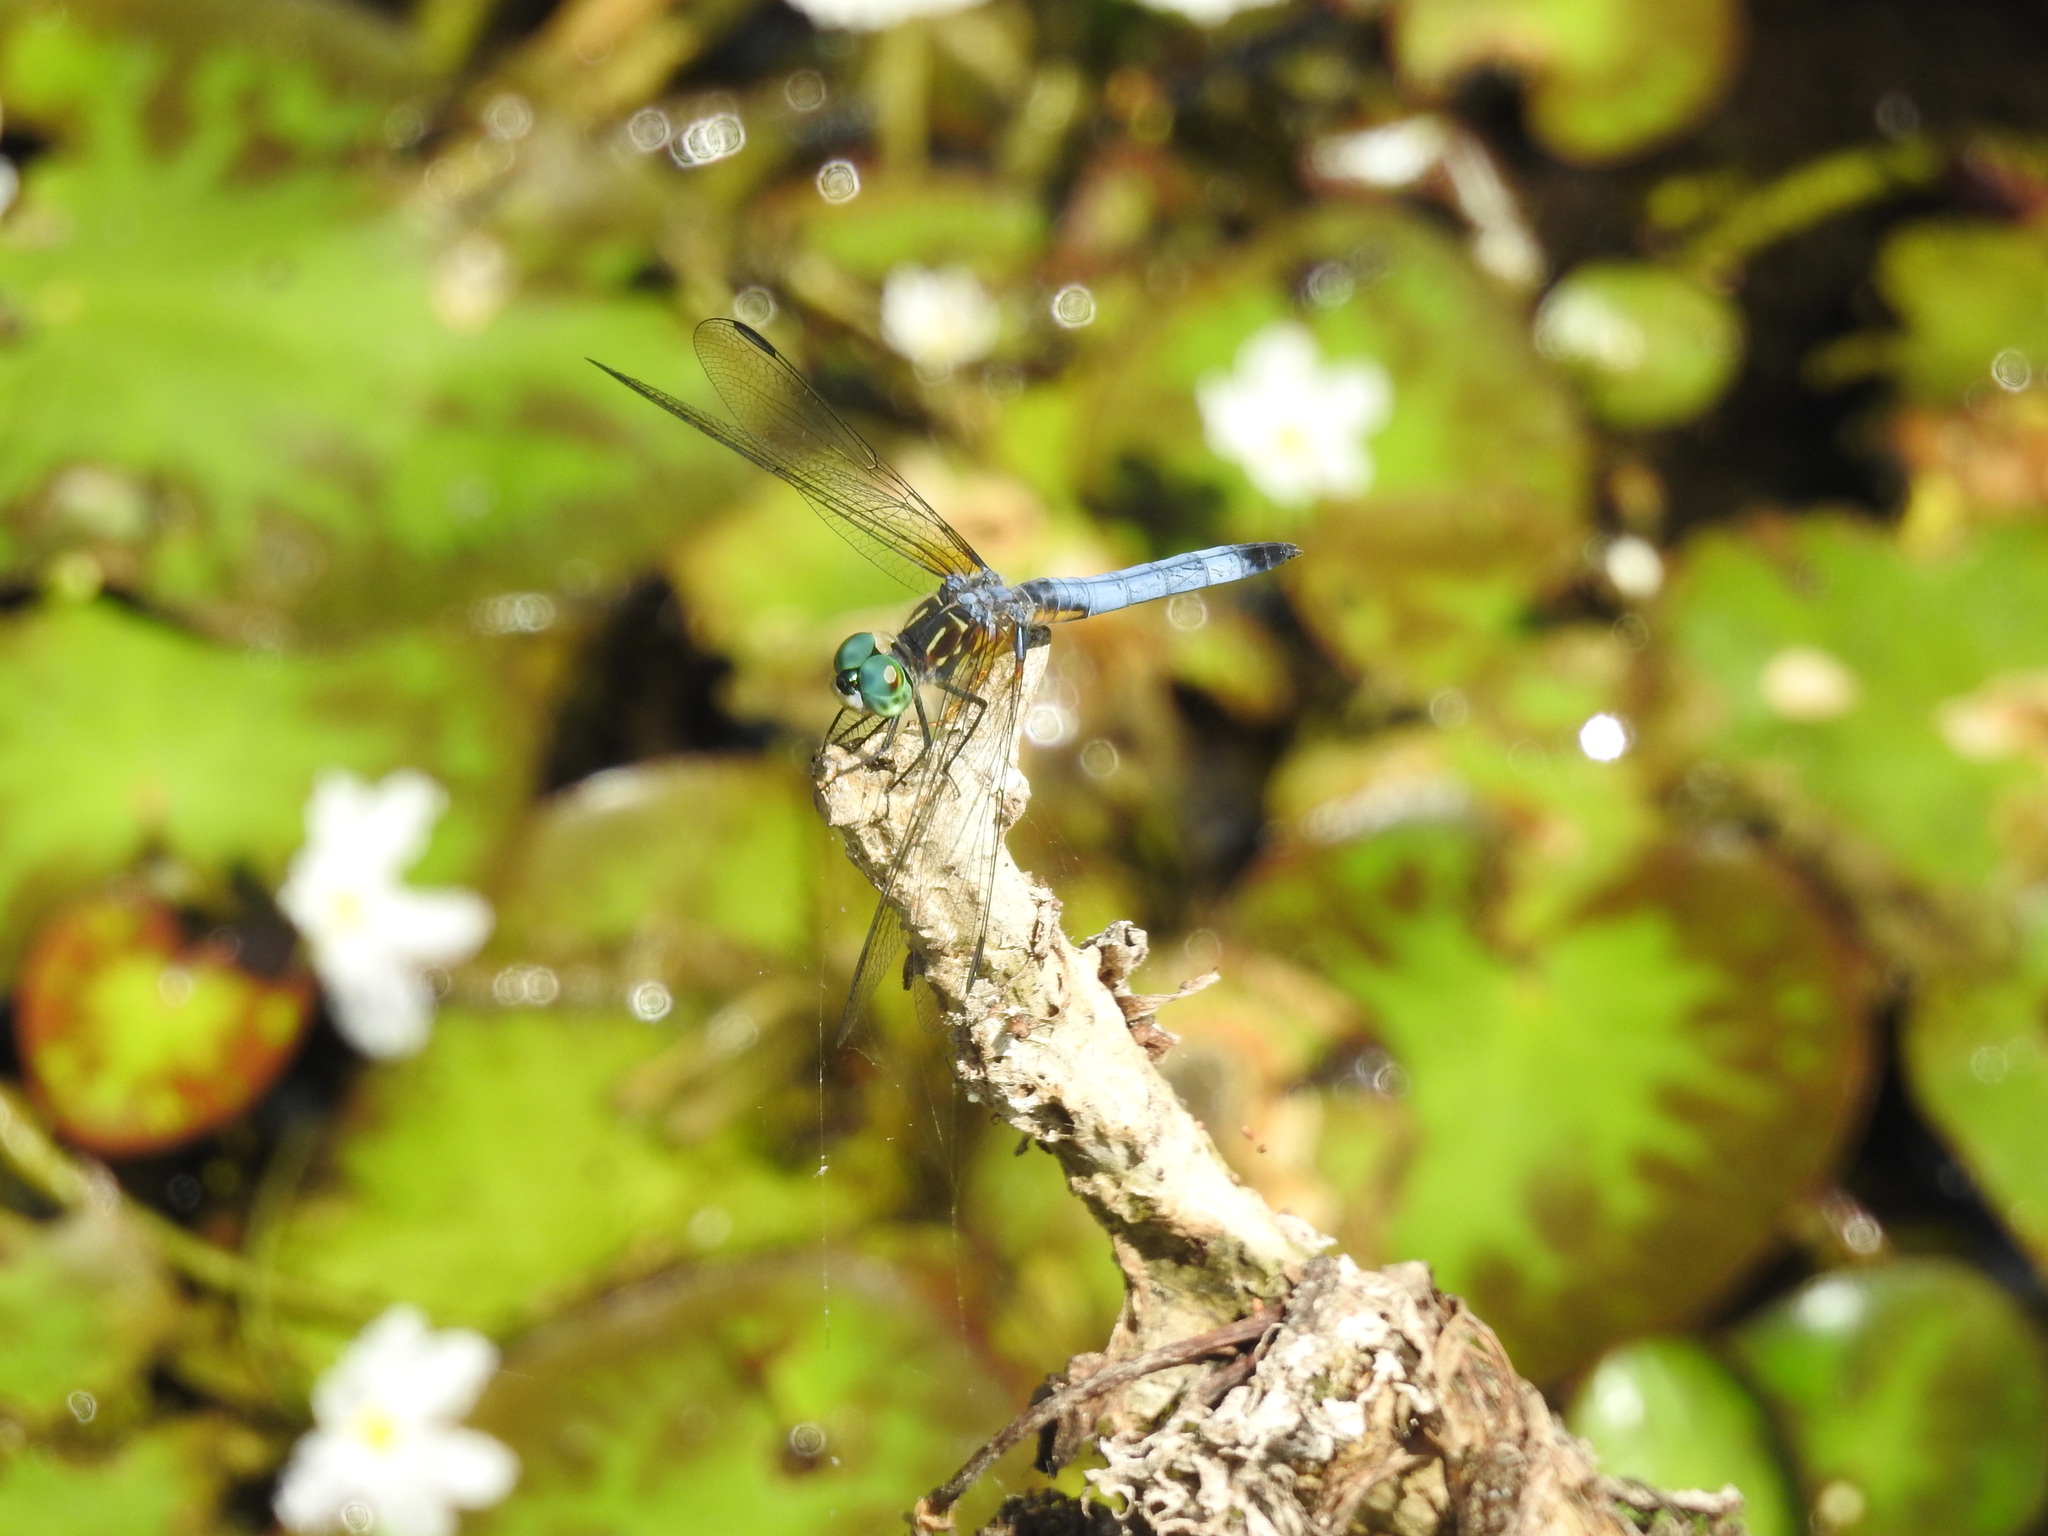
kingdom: Animalia
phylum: Arthropoda
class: Insecta
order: Odonata
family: Libellulidae
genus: Pachydiplax
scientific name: Pachydiplax longipennis
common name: Blue dasher
